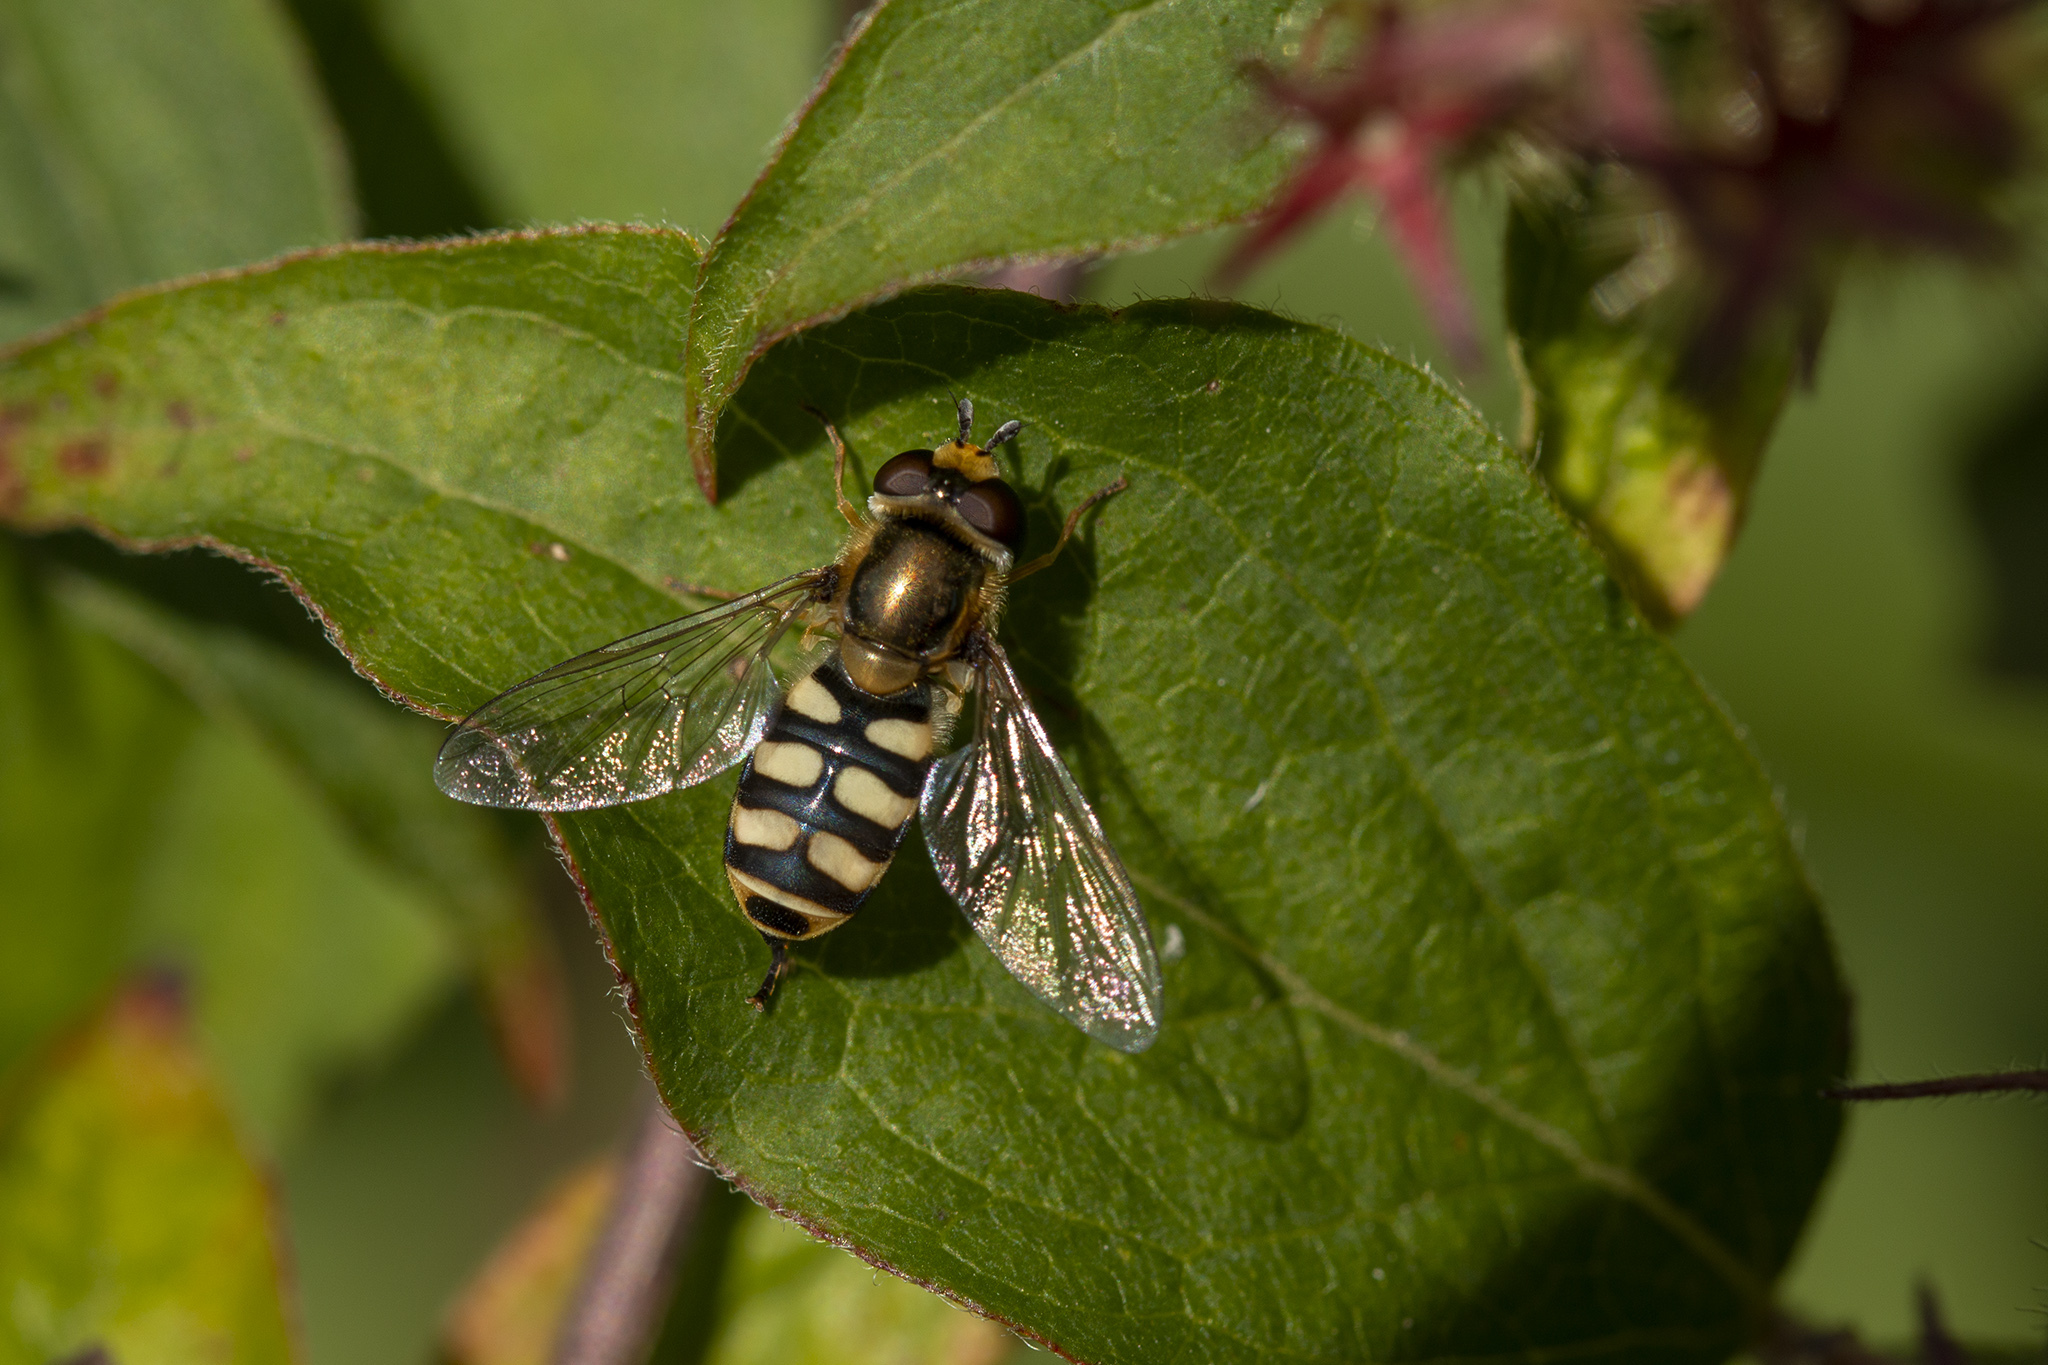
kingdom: Animalia
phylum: Arthropoda
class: Insecta
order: Diptera
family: Syrphidae
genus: Eupeodes
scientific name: Eupeodes corollae
